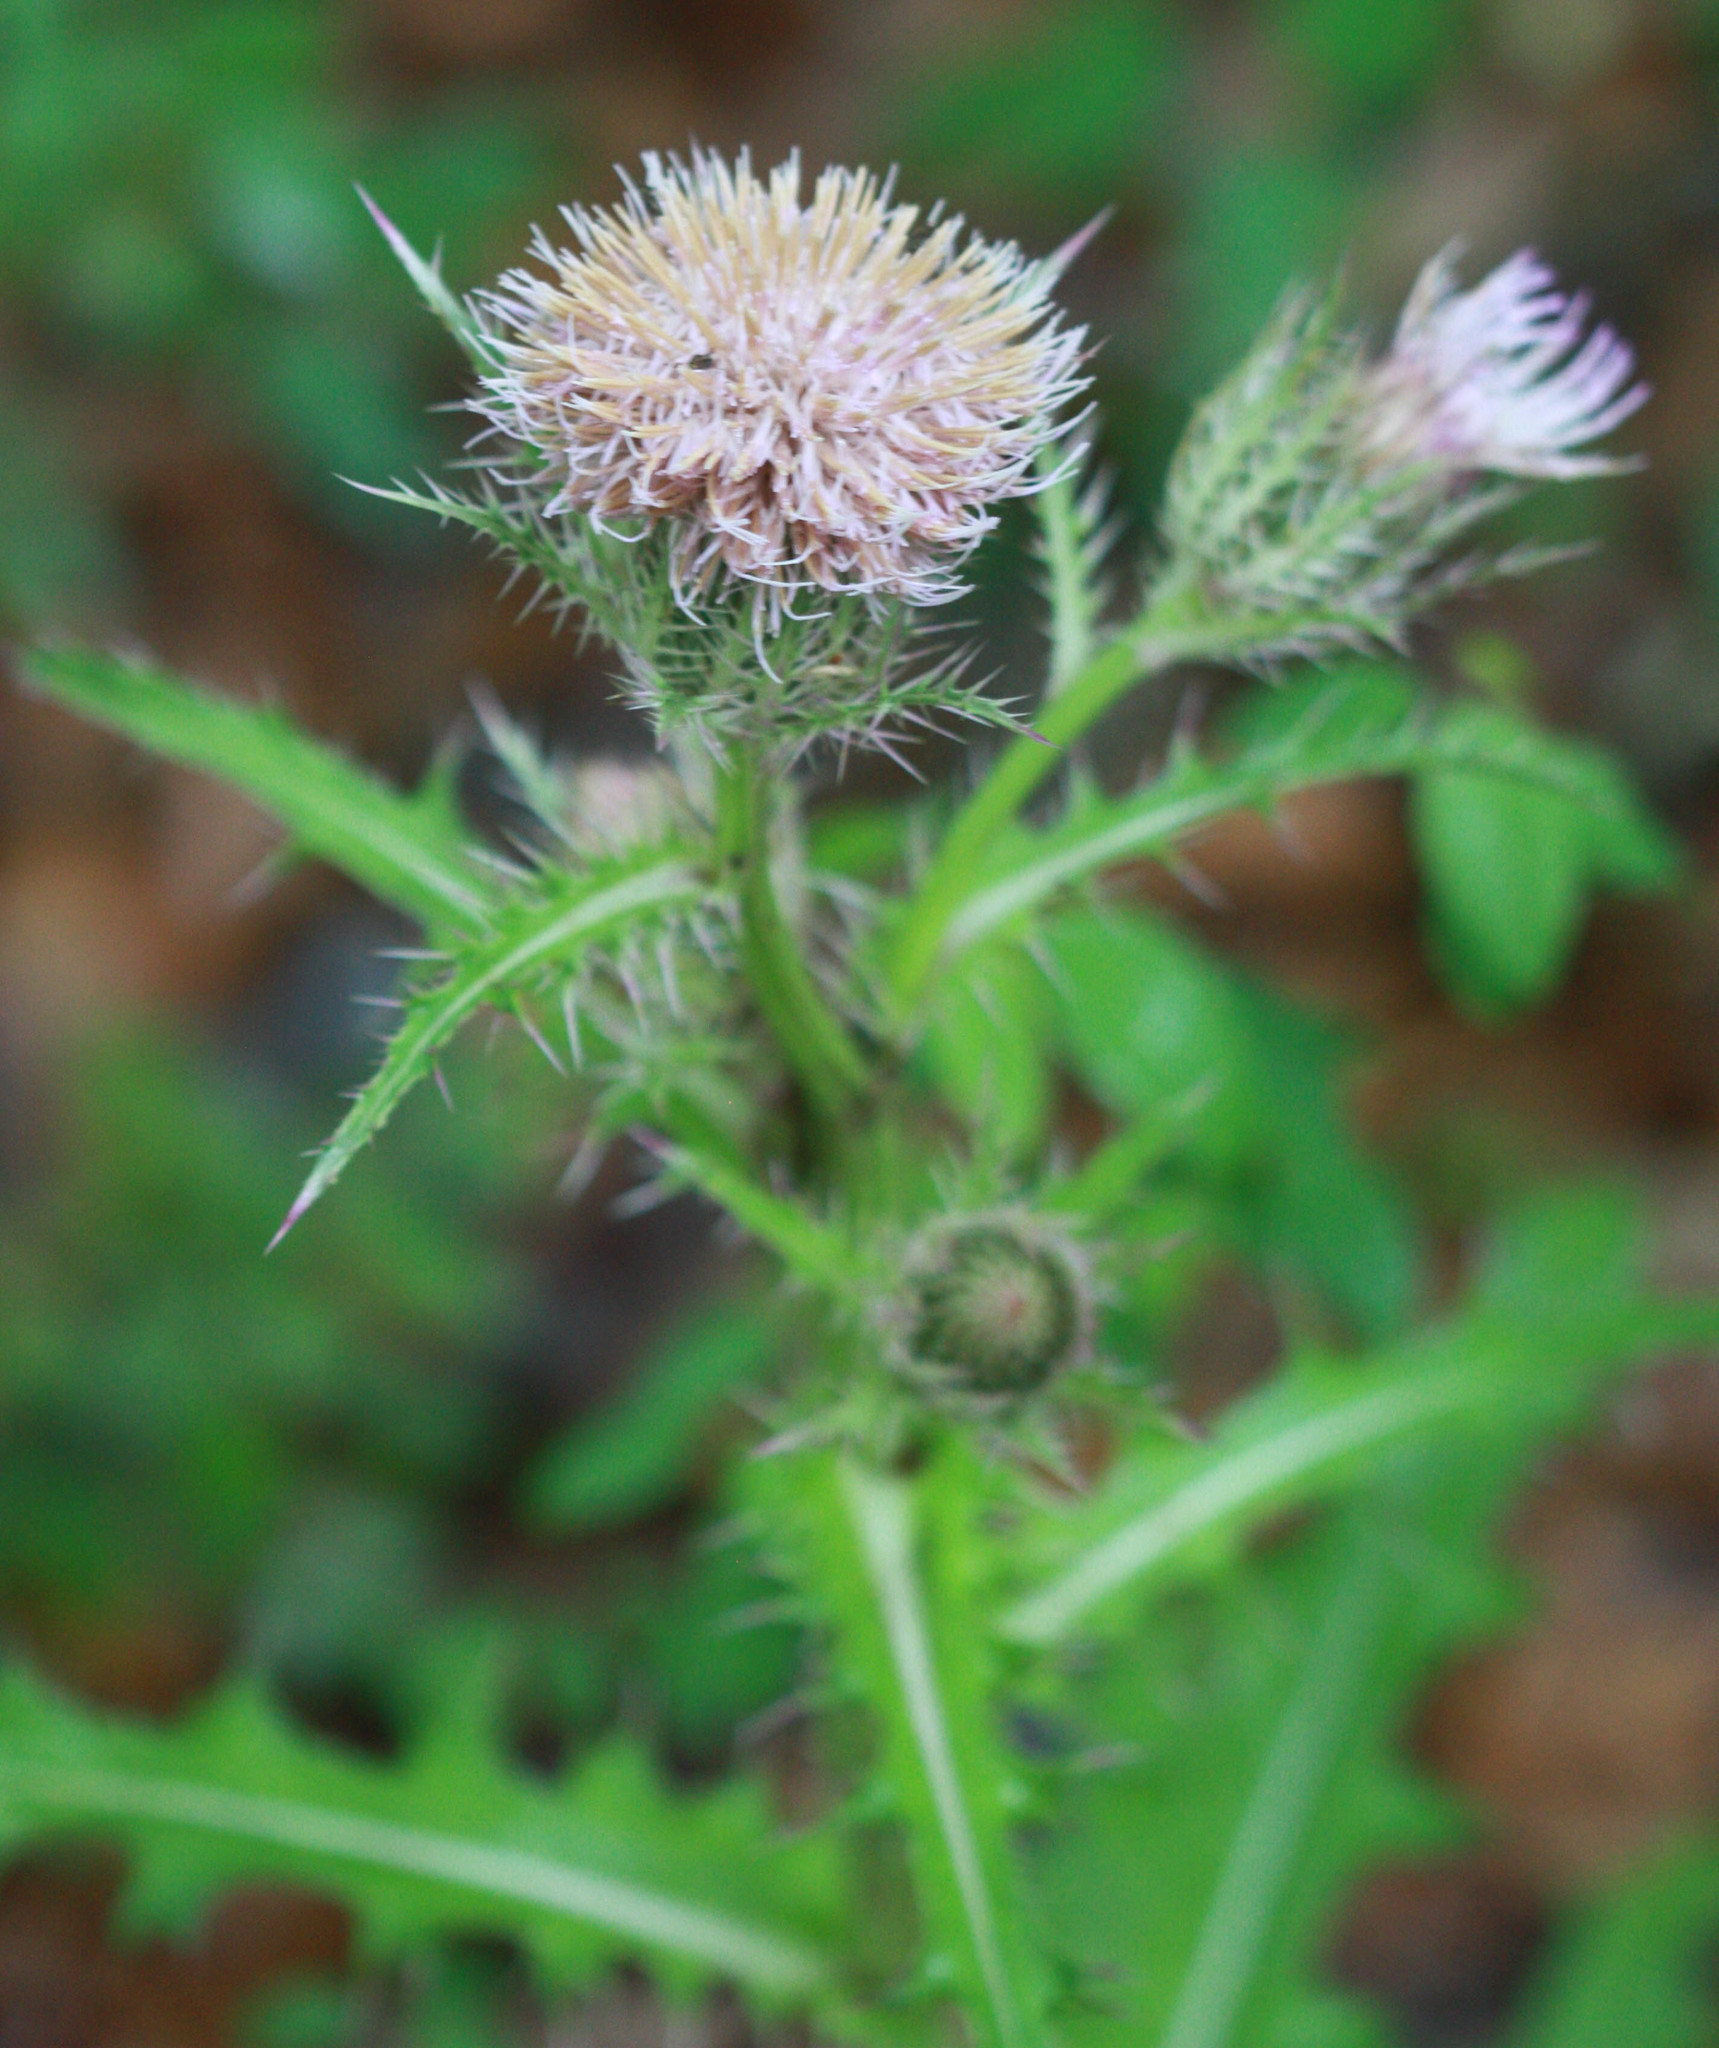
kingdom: Plantae
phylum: Tracheophyta
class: Magnoliopsida
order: Asterales
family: Asteraceae
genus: Cirsium
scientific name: Cirsium horridulum
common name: Bristly thistle
